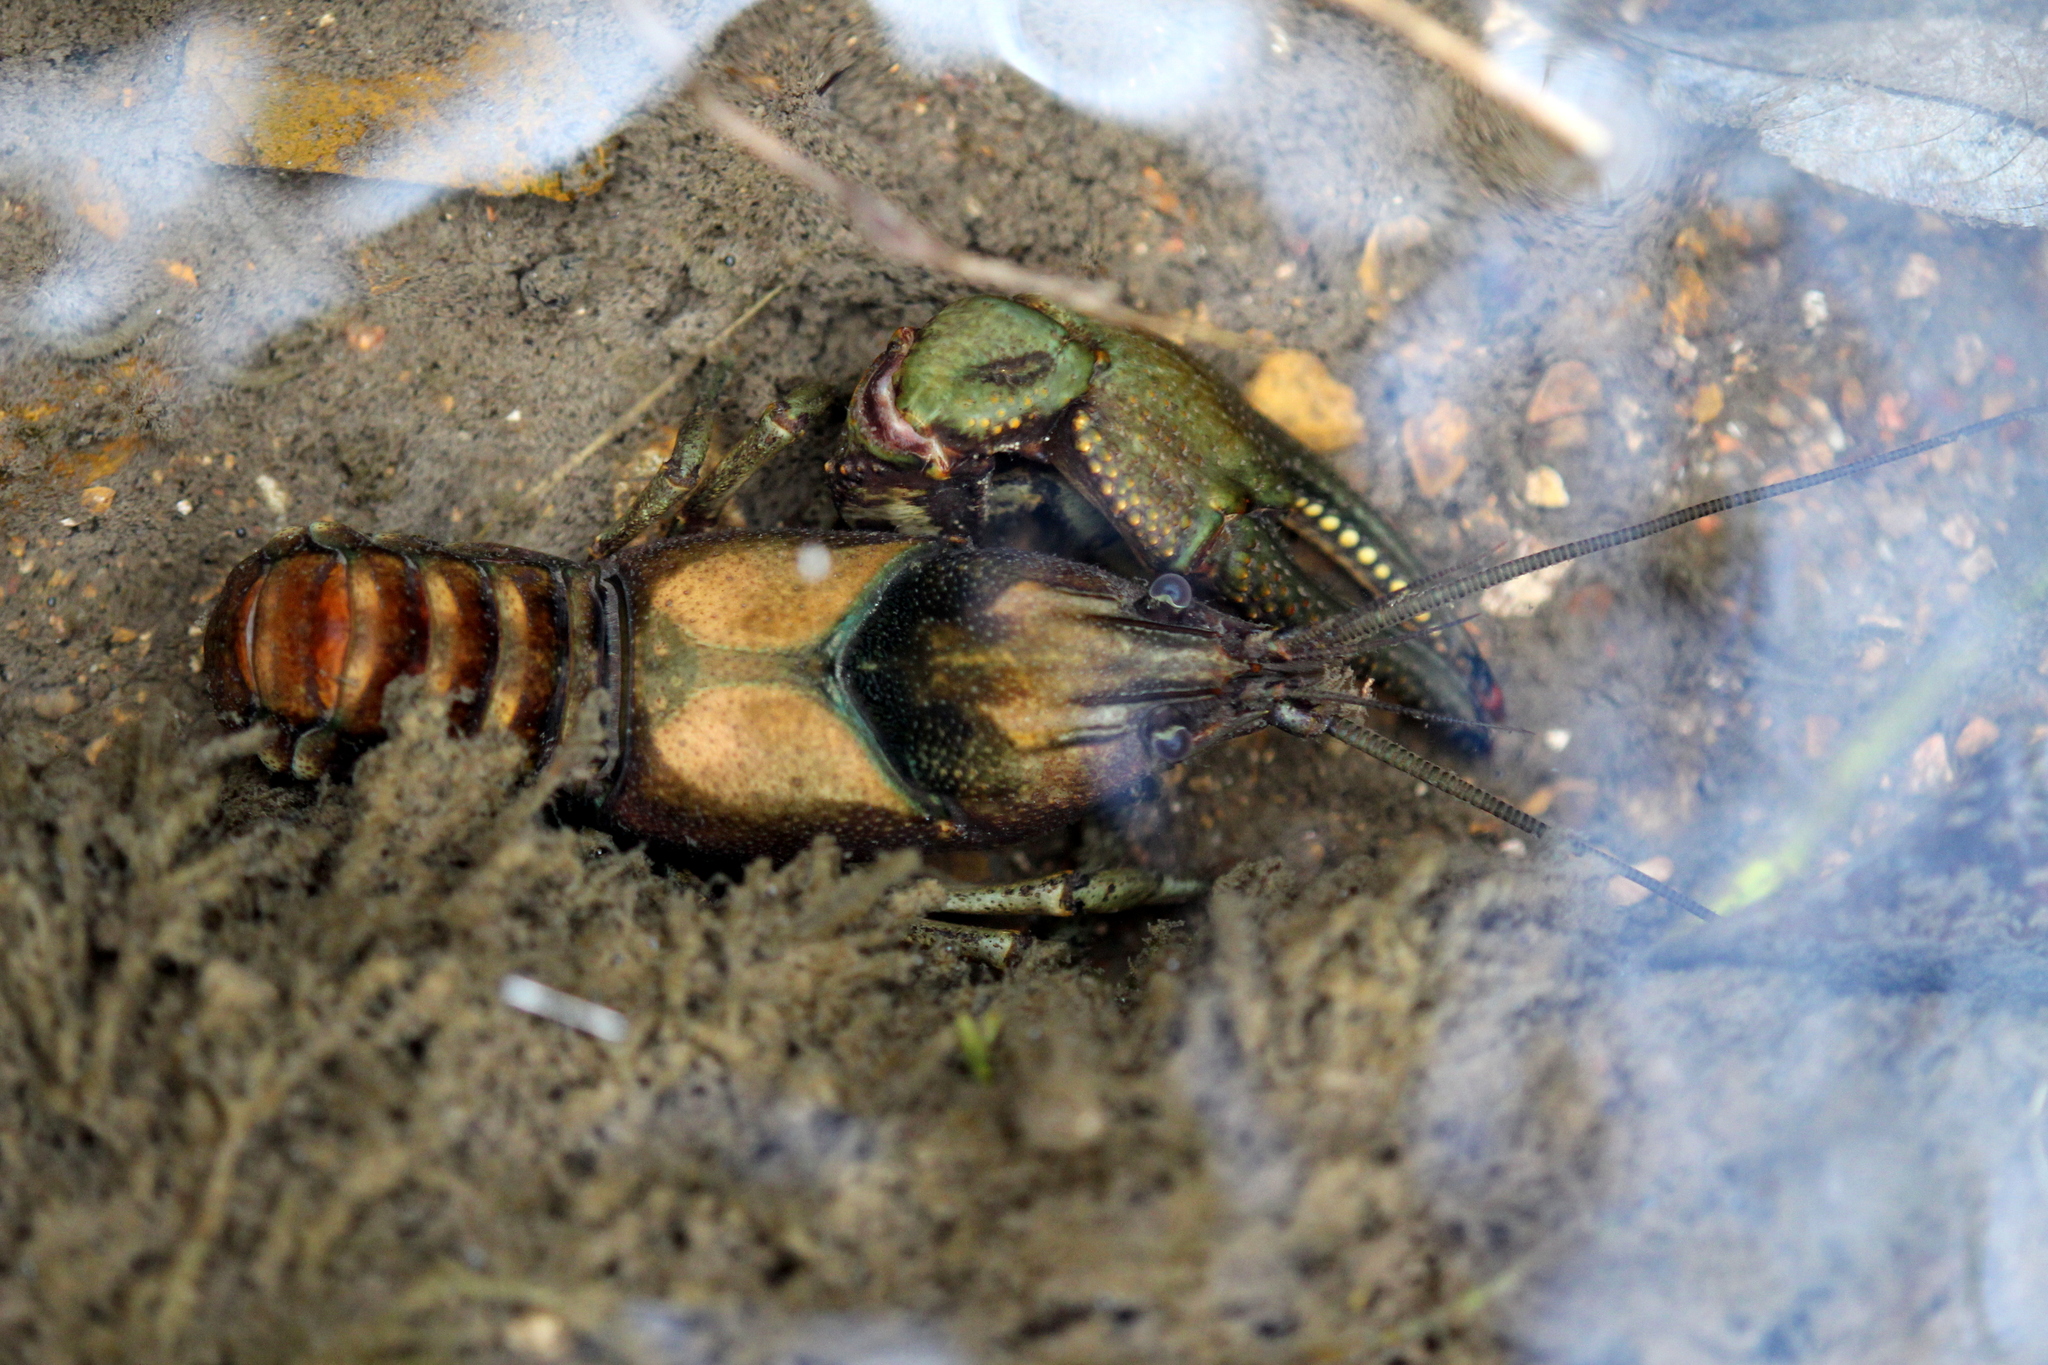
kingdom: Animalia
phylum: Arthropoda
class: Malacostraca
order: Decapoda
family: Cambaridae
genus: Faxonius
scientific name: Faxonius neglectus
